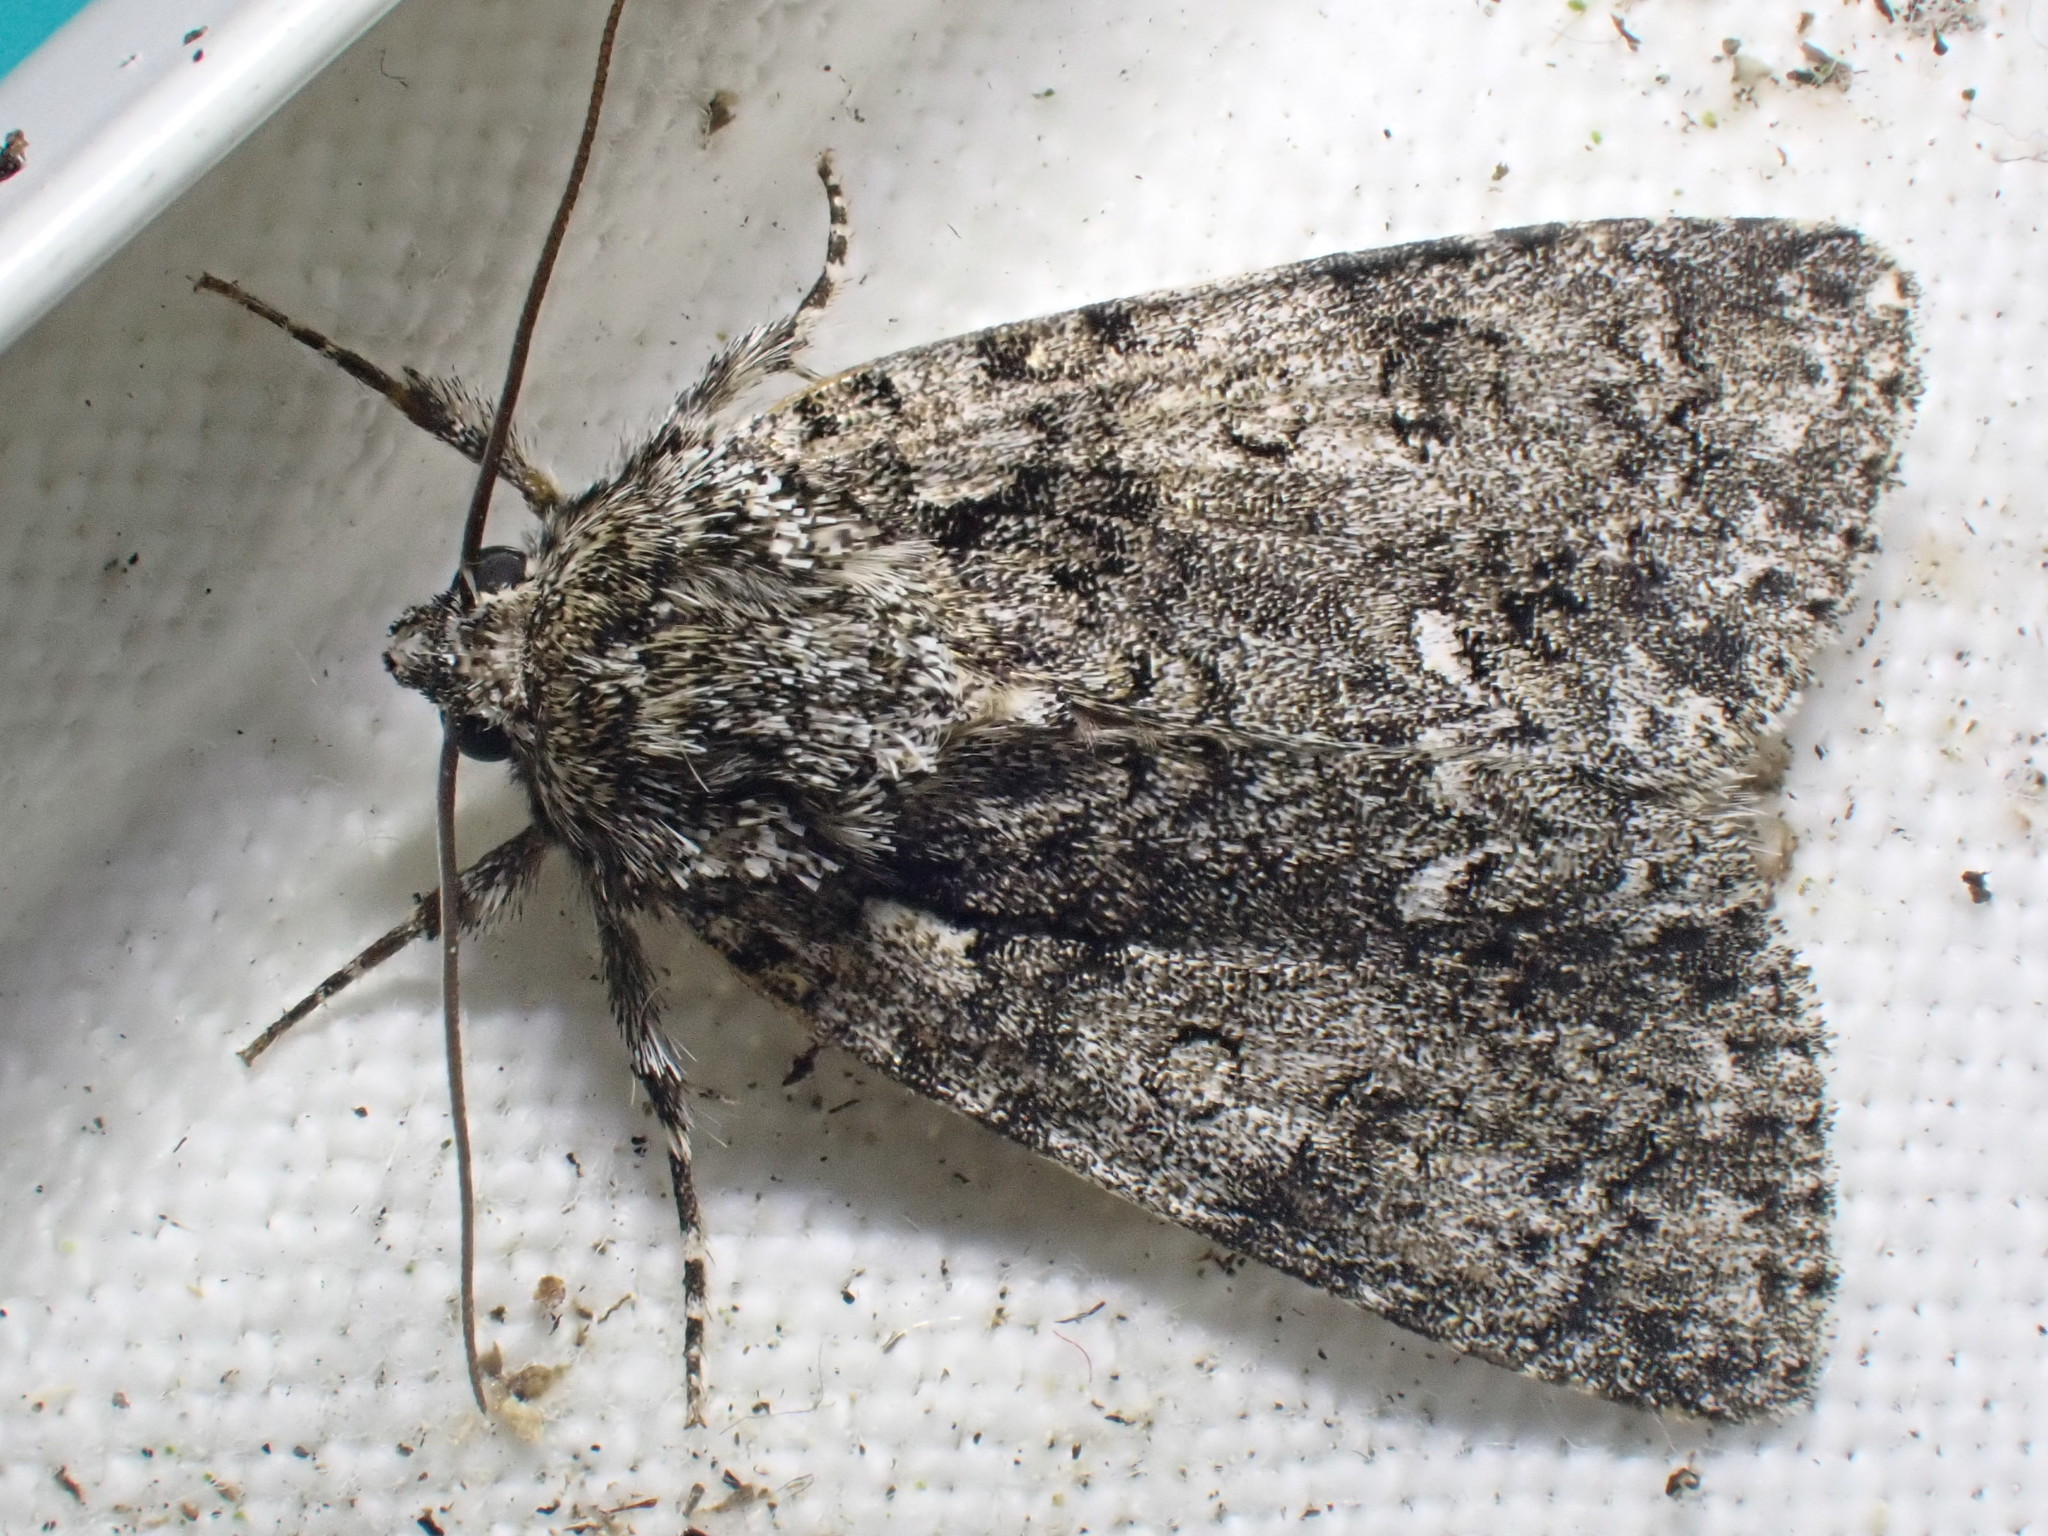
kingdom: Animalia
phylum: Arthropoda
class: Insecta
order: Lepidoptera
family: Noctuidae
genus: Acronicta
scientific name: Acronicta rumicis
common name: Knot grass
